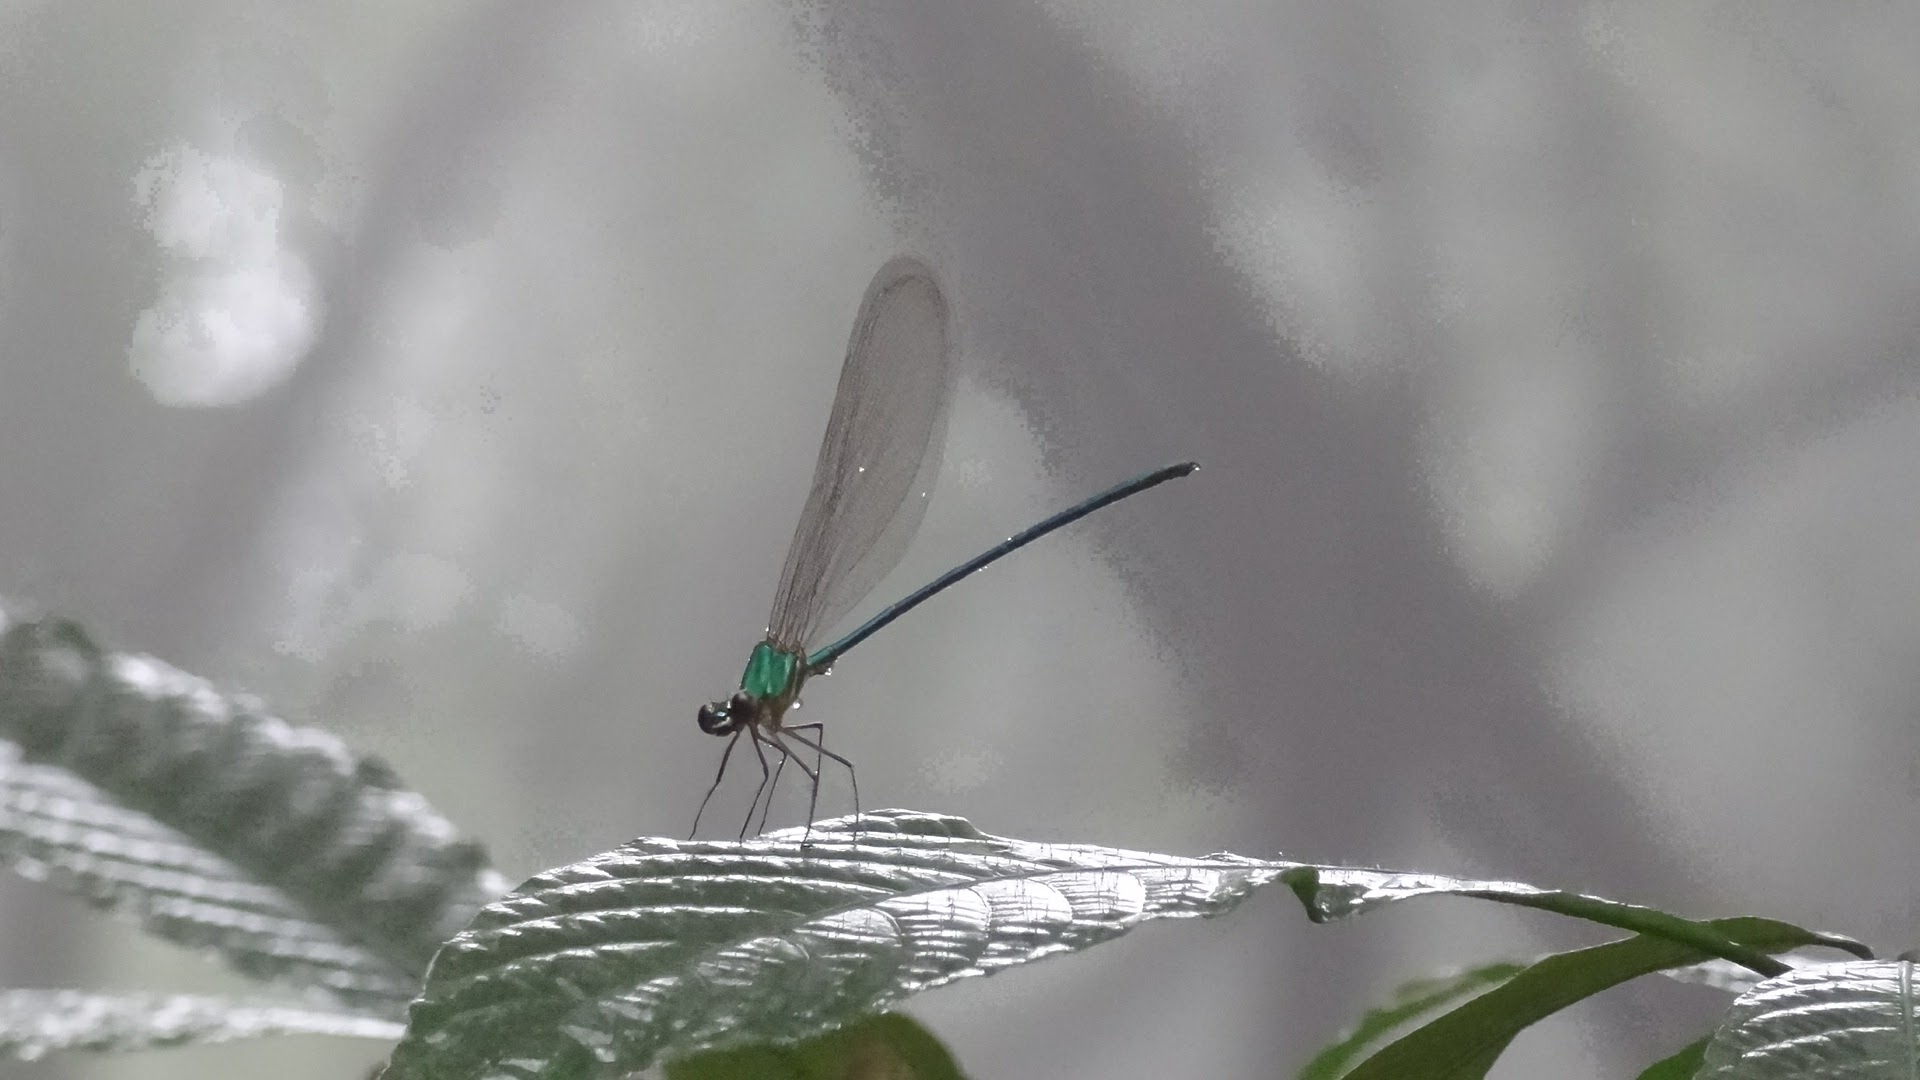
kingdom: Animalia
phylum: Arthropoda
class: Insecta
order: Odonata
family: Calopterygidae
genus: Vestalis
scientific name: Vestalis gracilis
